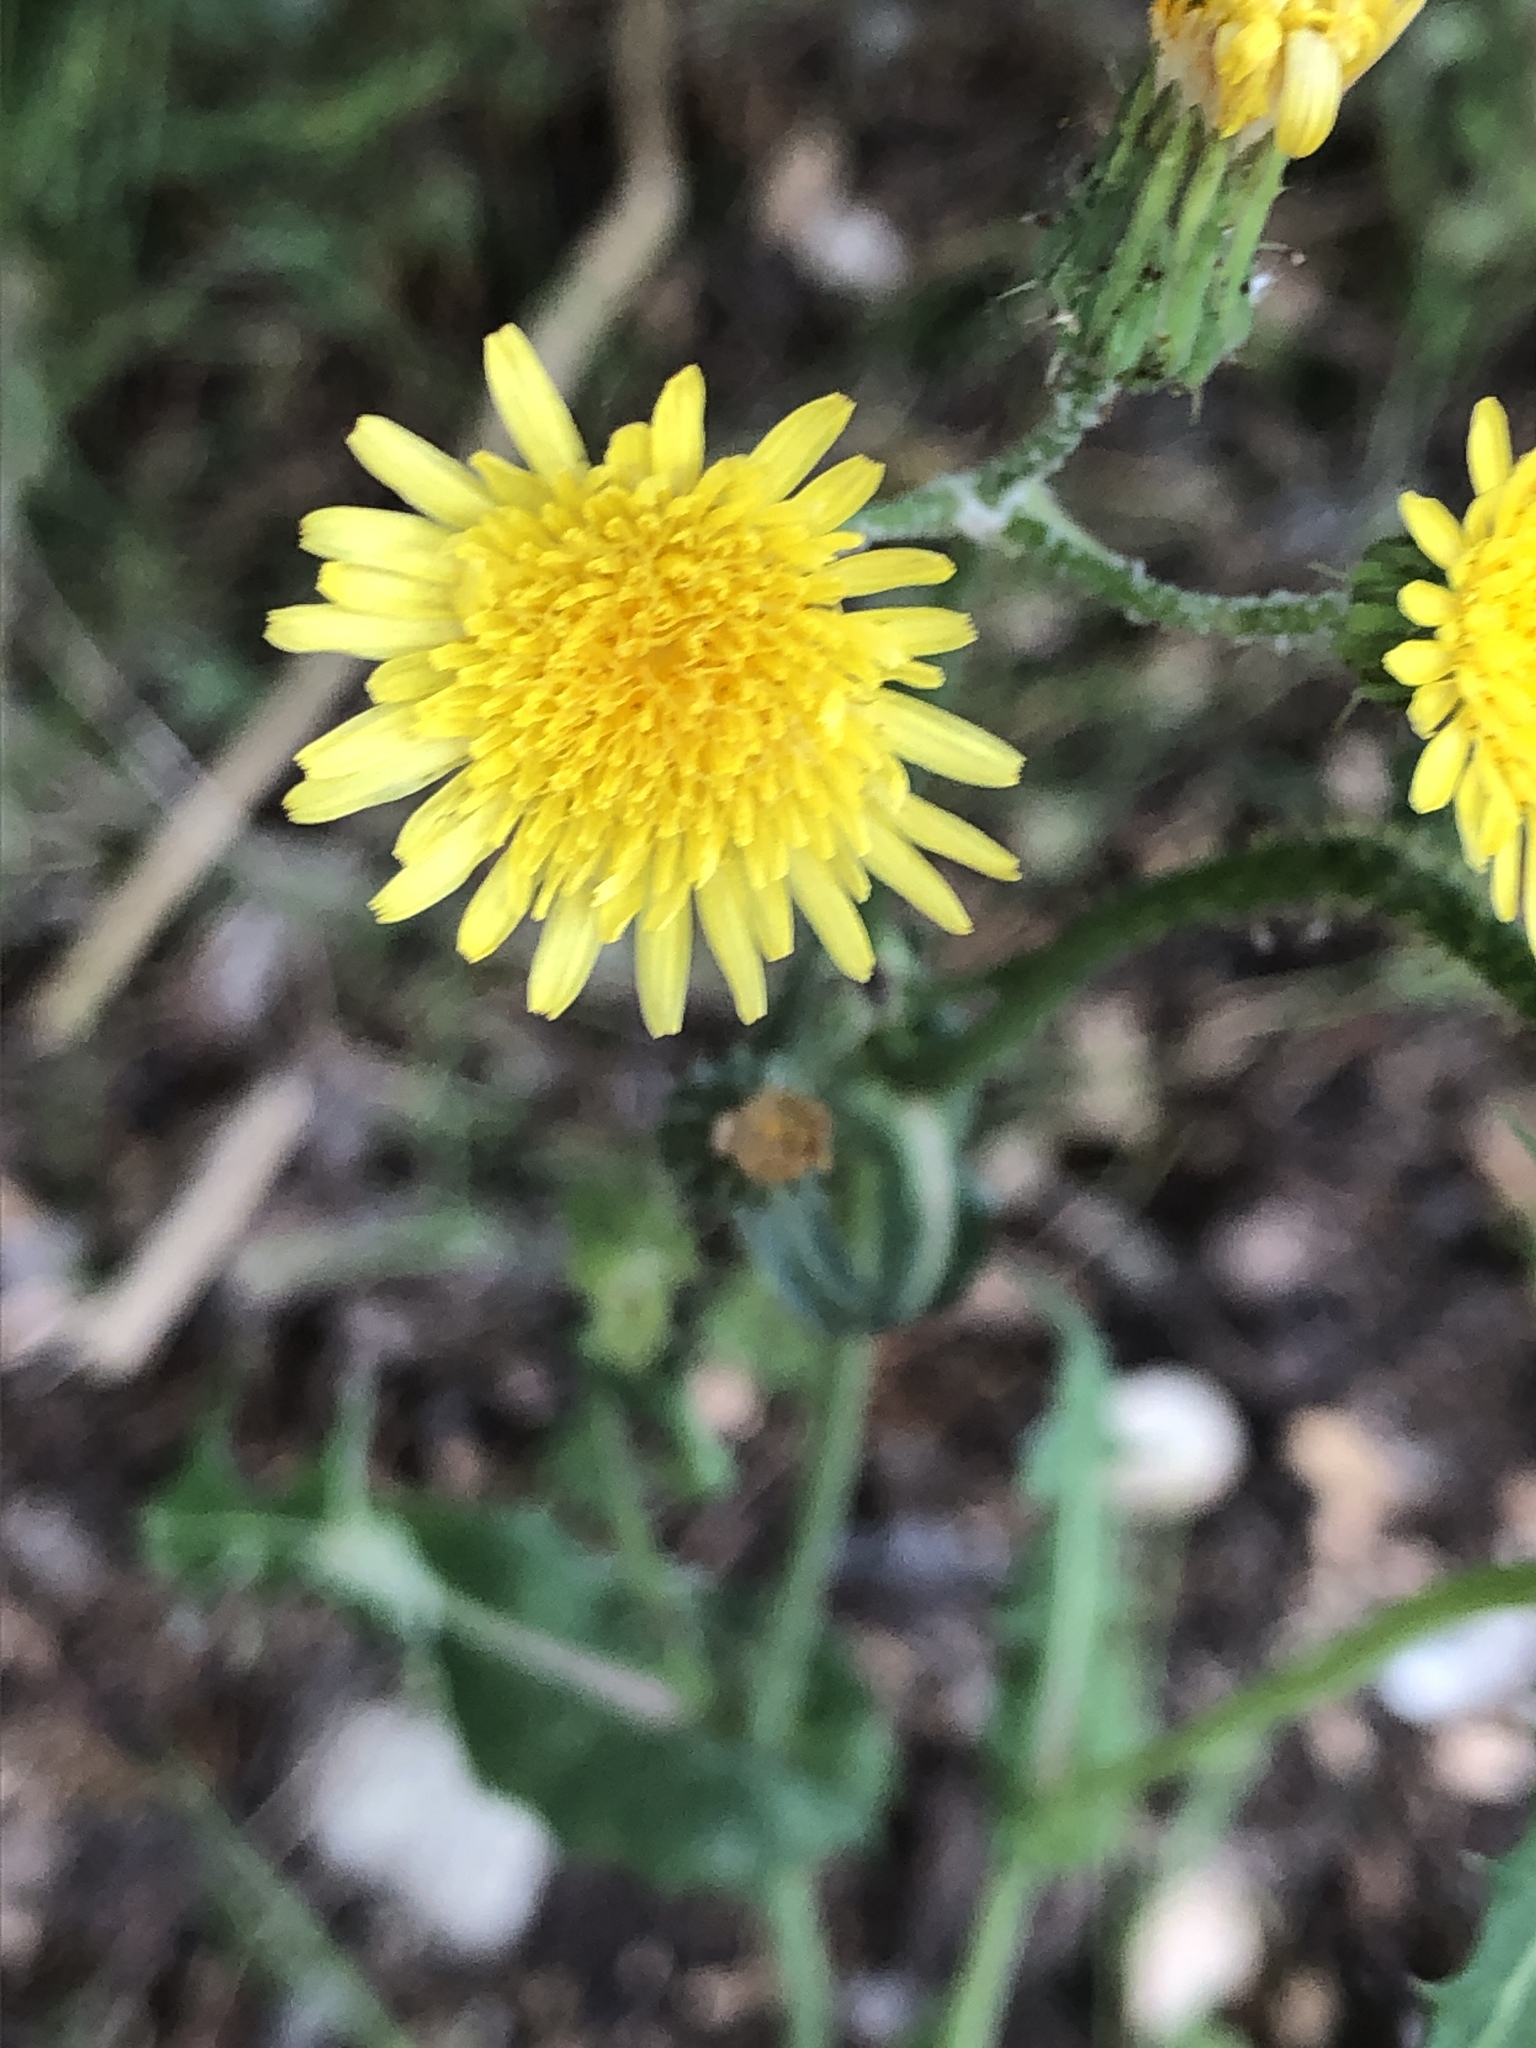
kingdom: Plantae
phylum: Tracheophyta
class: Magnoliopsida
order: Asterales
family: Asteraceae
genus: Sonchus
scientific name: Sonchus oleraceus
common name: Common sowthistle
